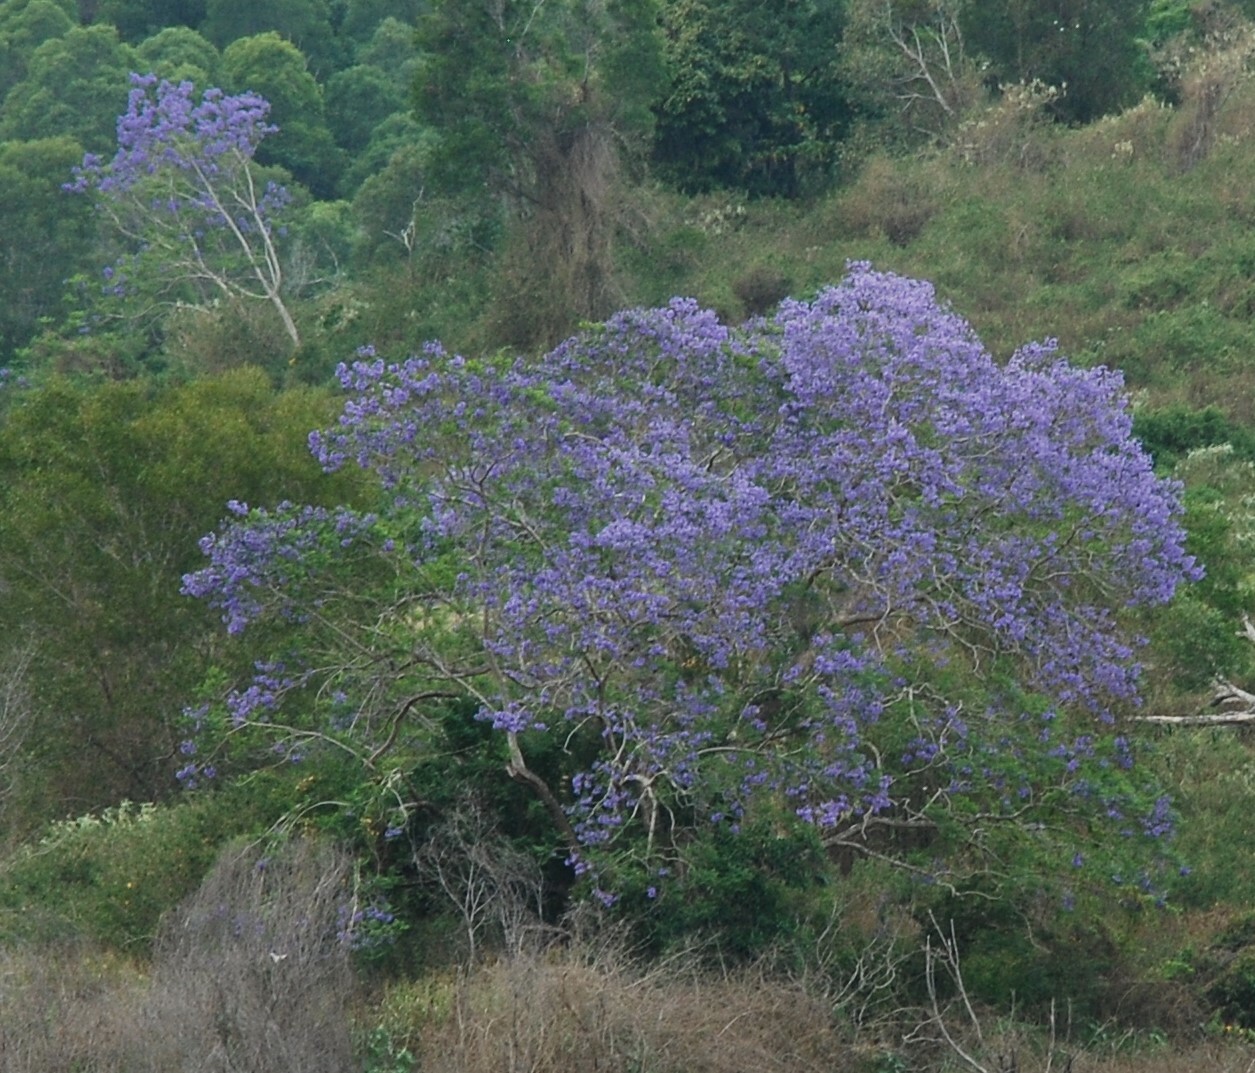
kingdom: Plantae
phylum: Tracheophyta
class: Magnoliopsida
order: Lamiales
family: Bignoniaceae
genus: Jacaranda
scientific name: Jacaranda mimosifolia
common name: Black poui
